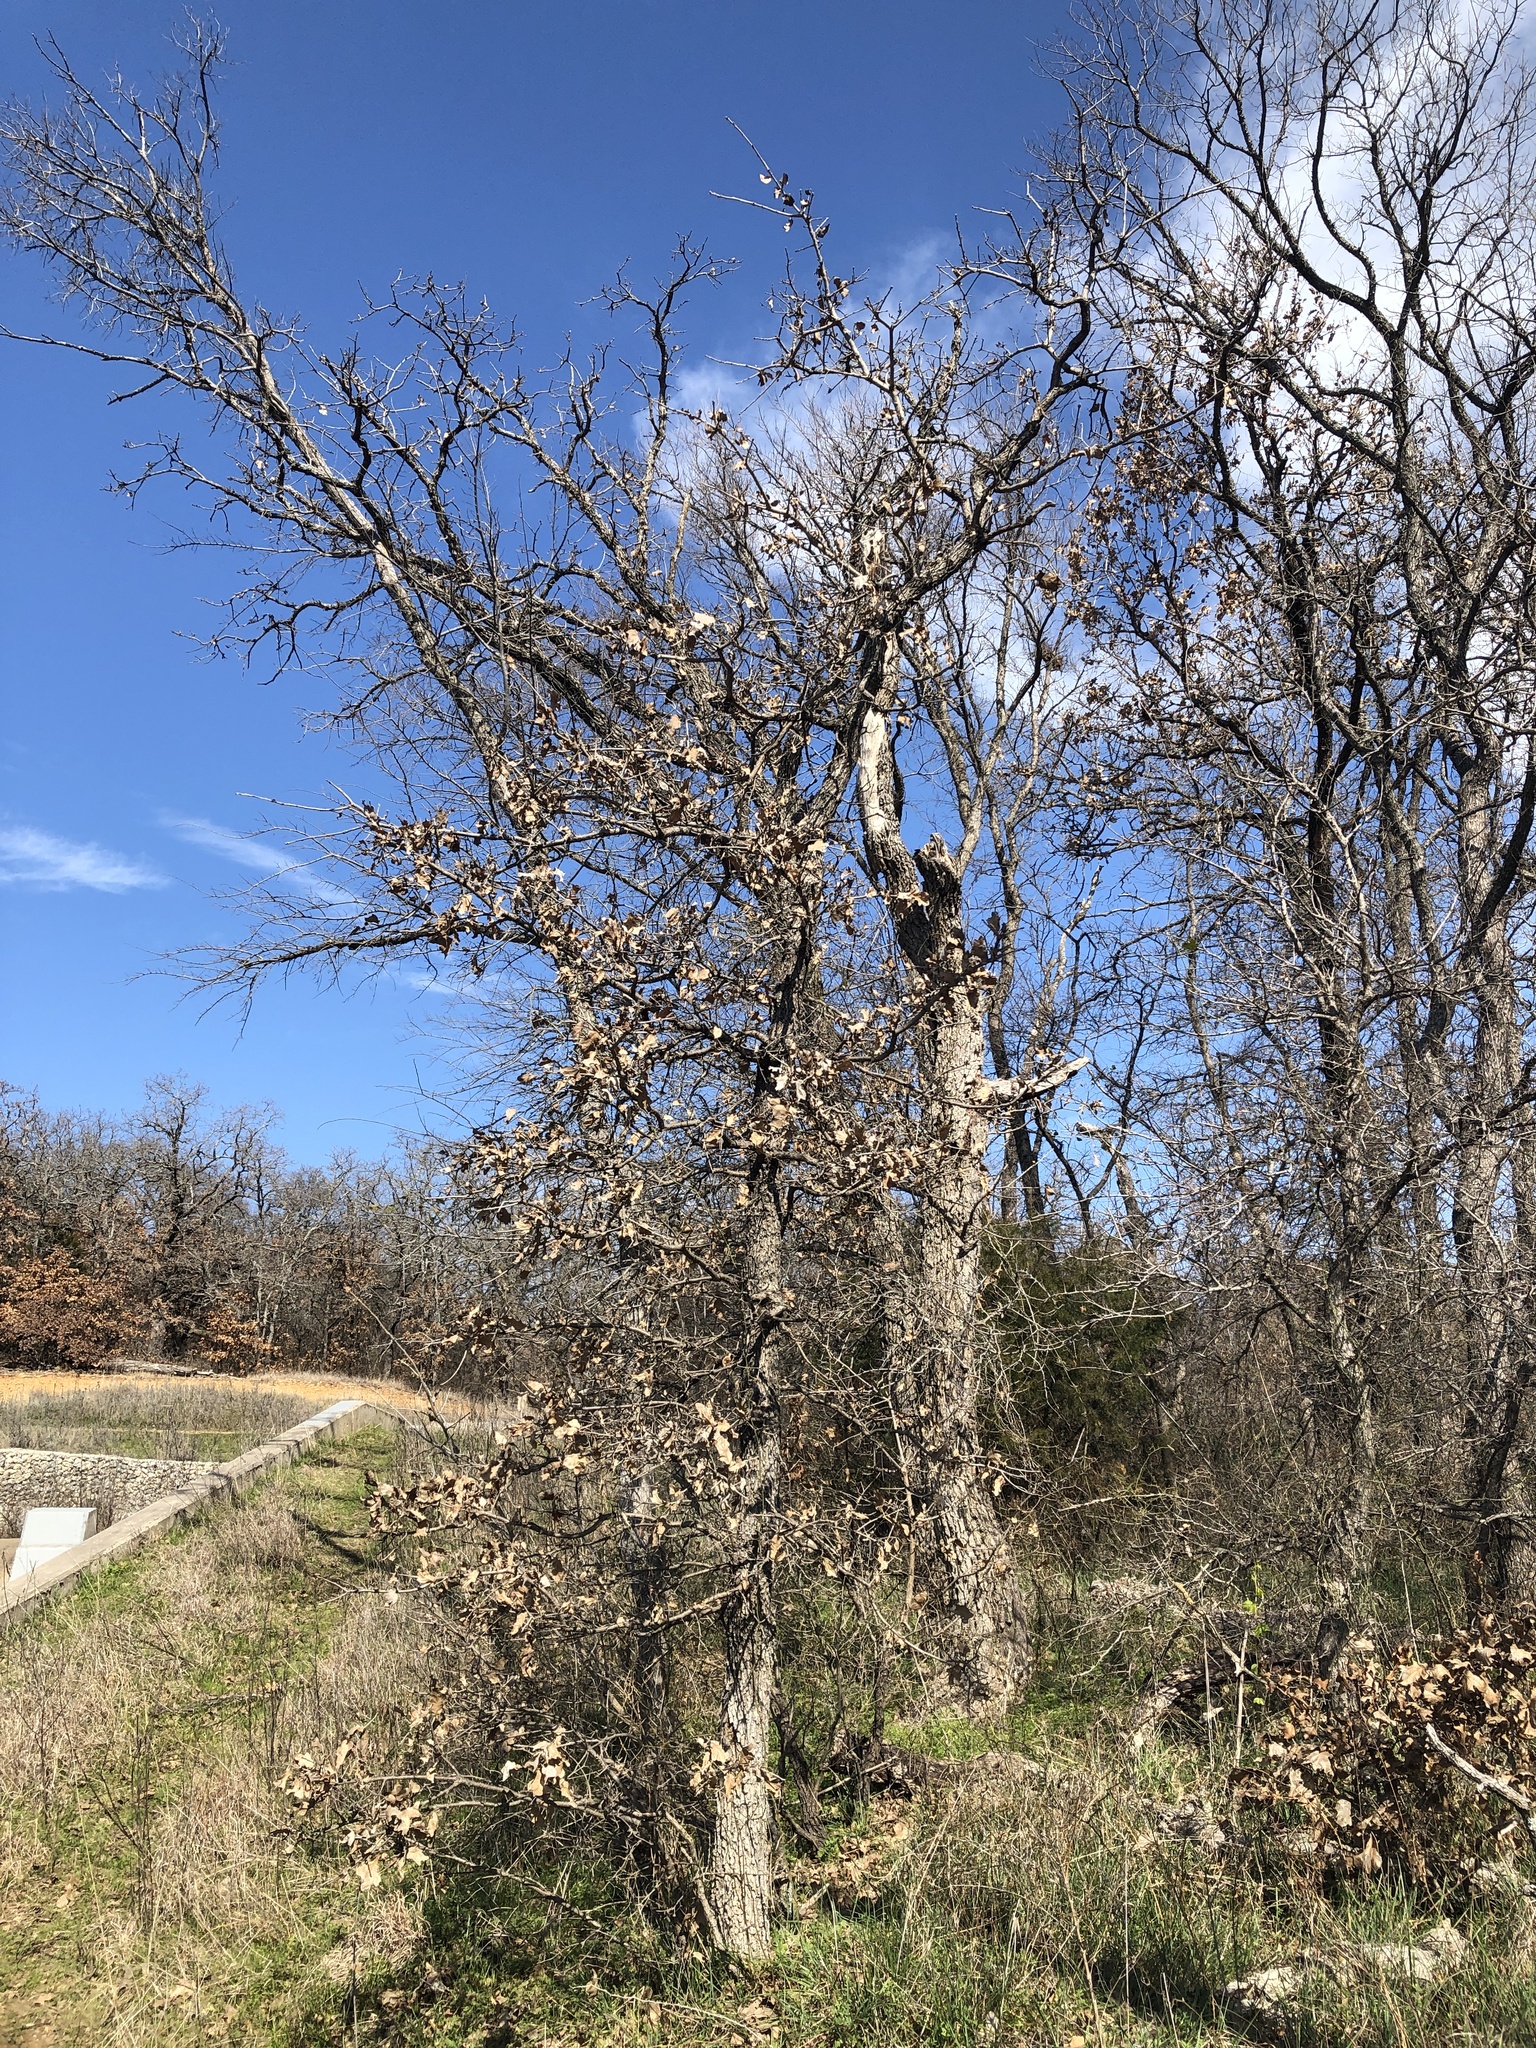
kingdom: Plantae
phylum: Tracheophyta
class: Magnoliopsida
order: Fagales
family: Fagaceae
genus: Quercus
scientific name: Quercus stellata
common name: Post oak
